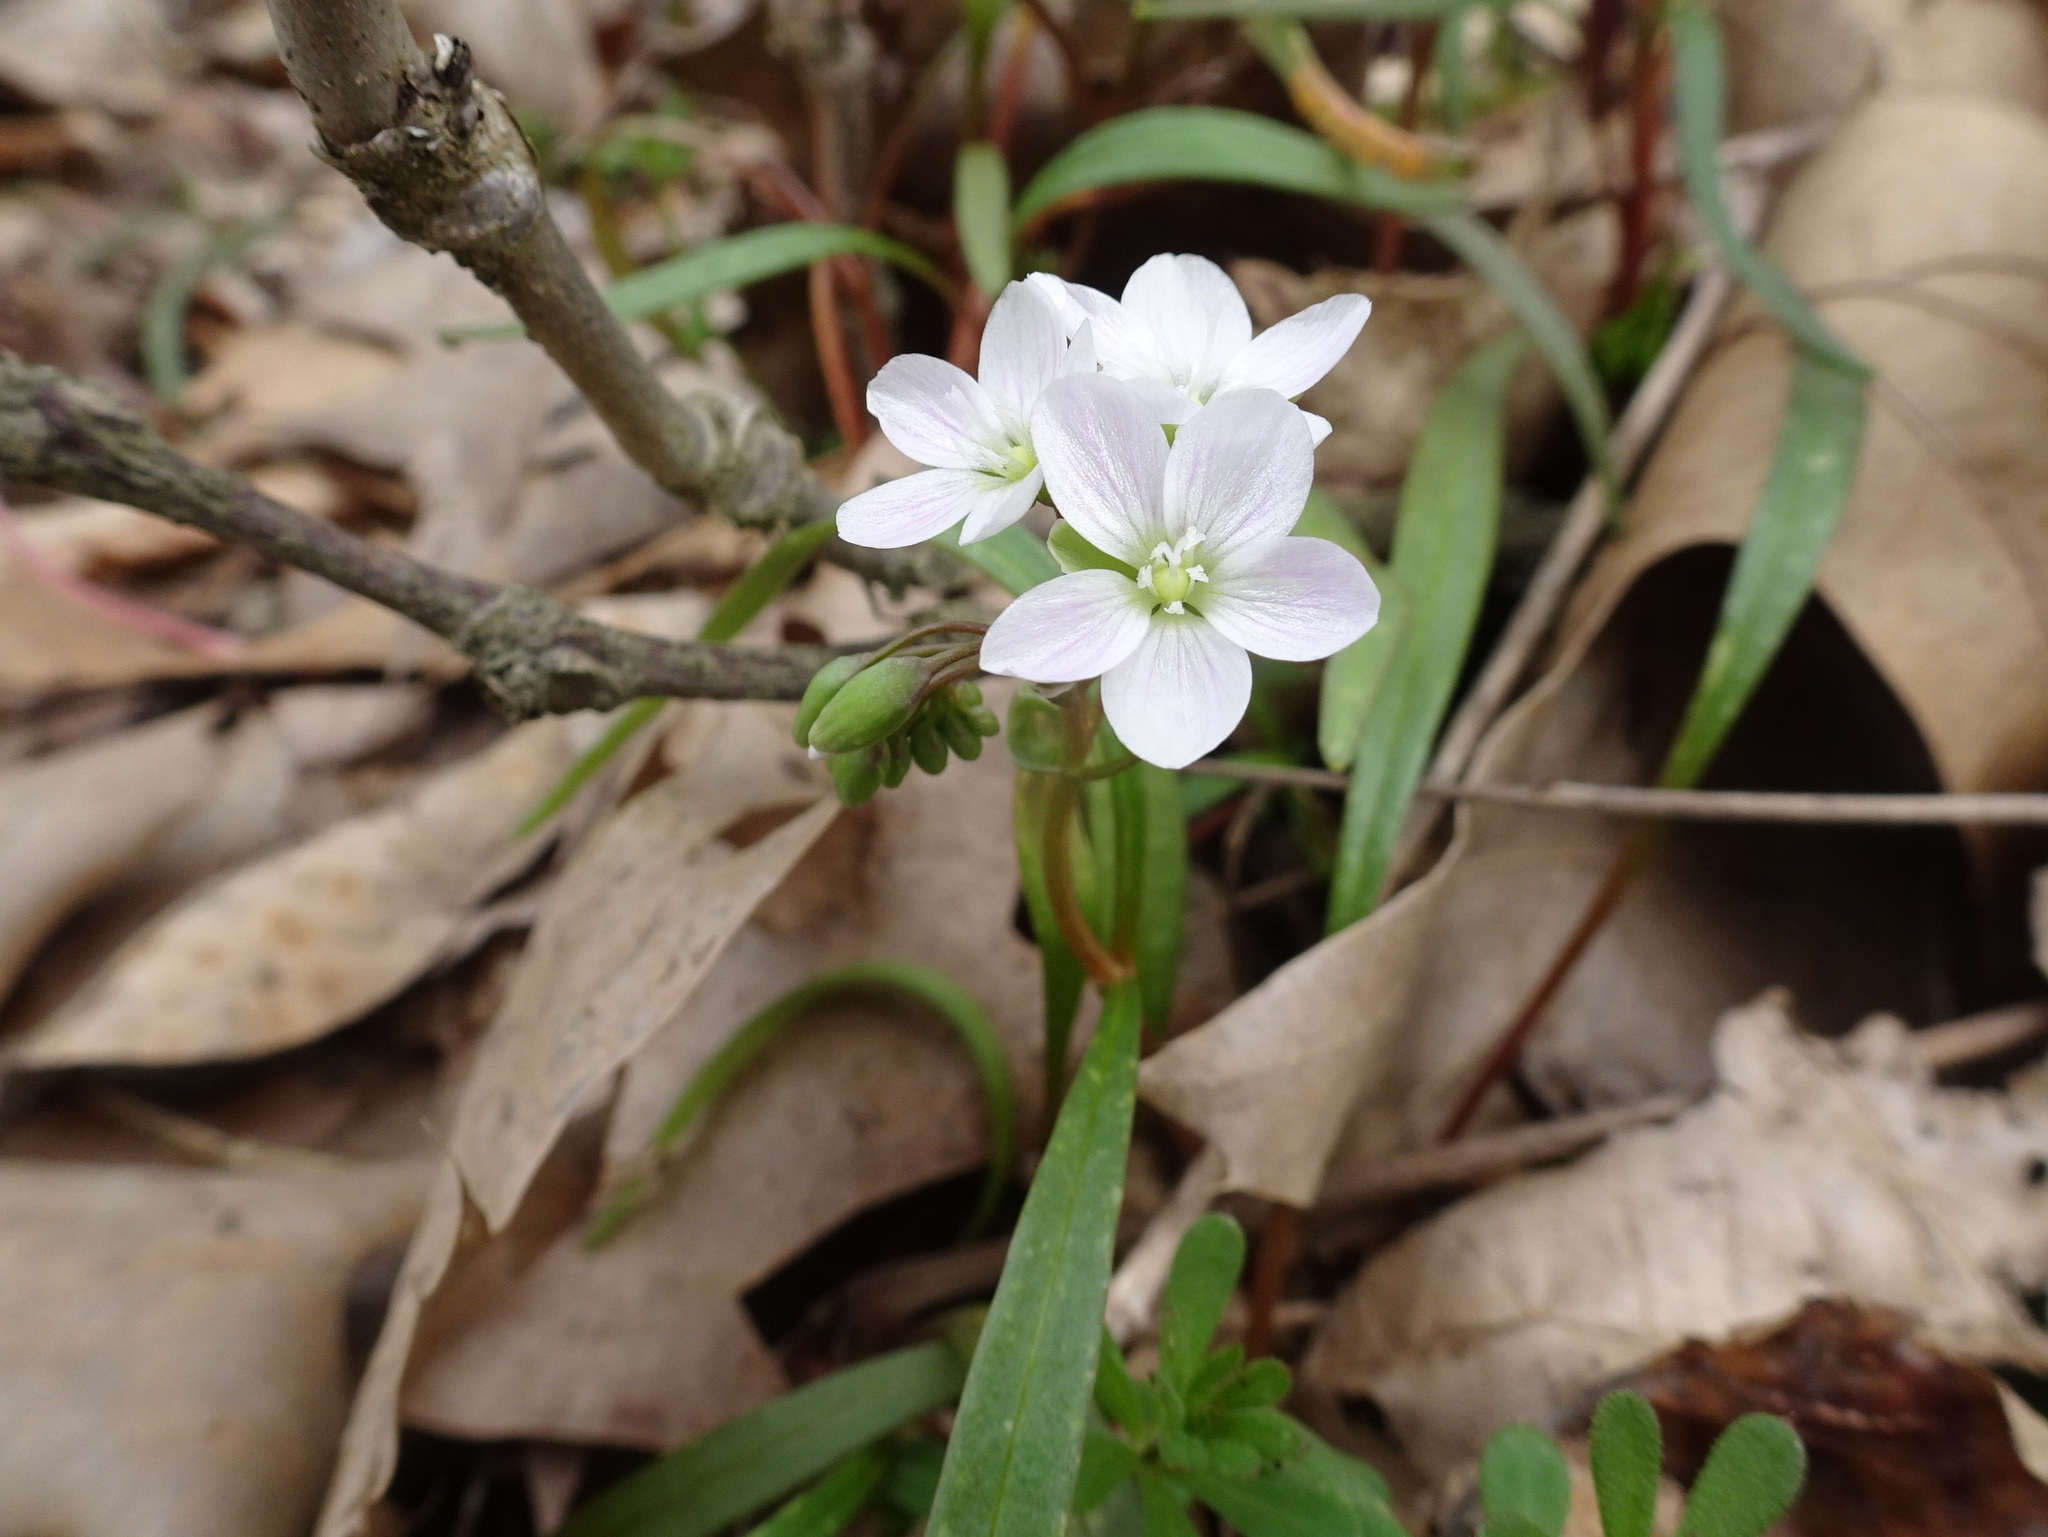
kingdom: Plantae
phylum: Tracheophyta
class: Magnoliopsida
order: Caryophyllales
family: Montiaceae
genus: Claytonia
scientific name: Claytonia virginica
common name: Virginia springbeauty
